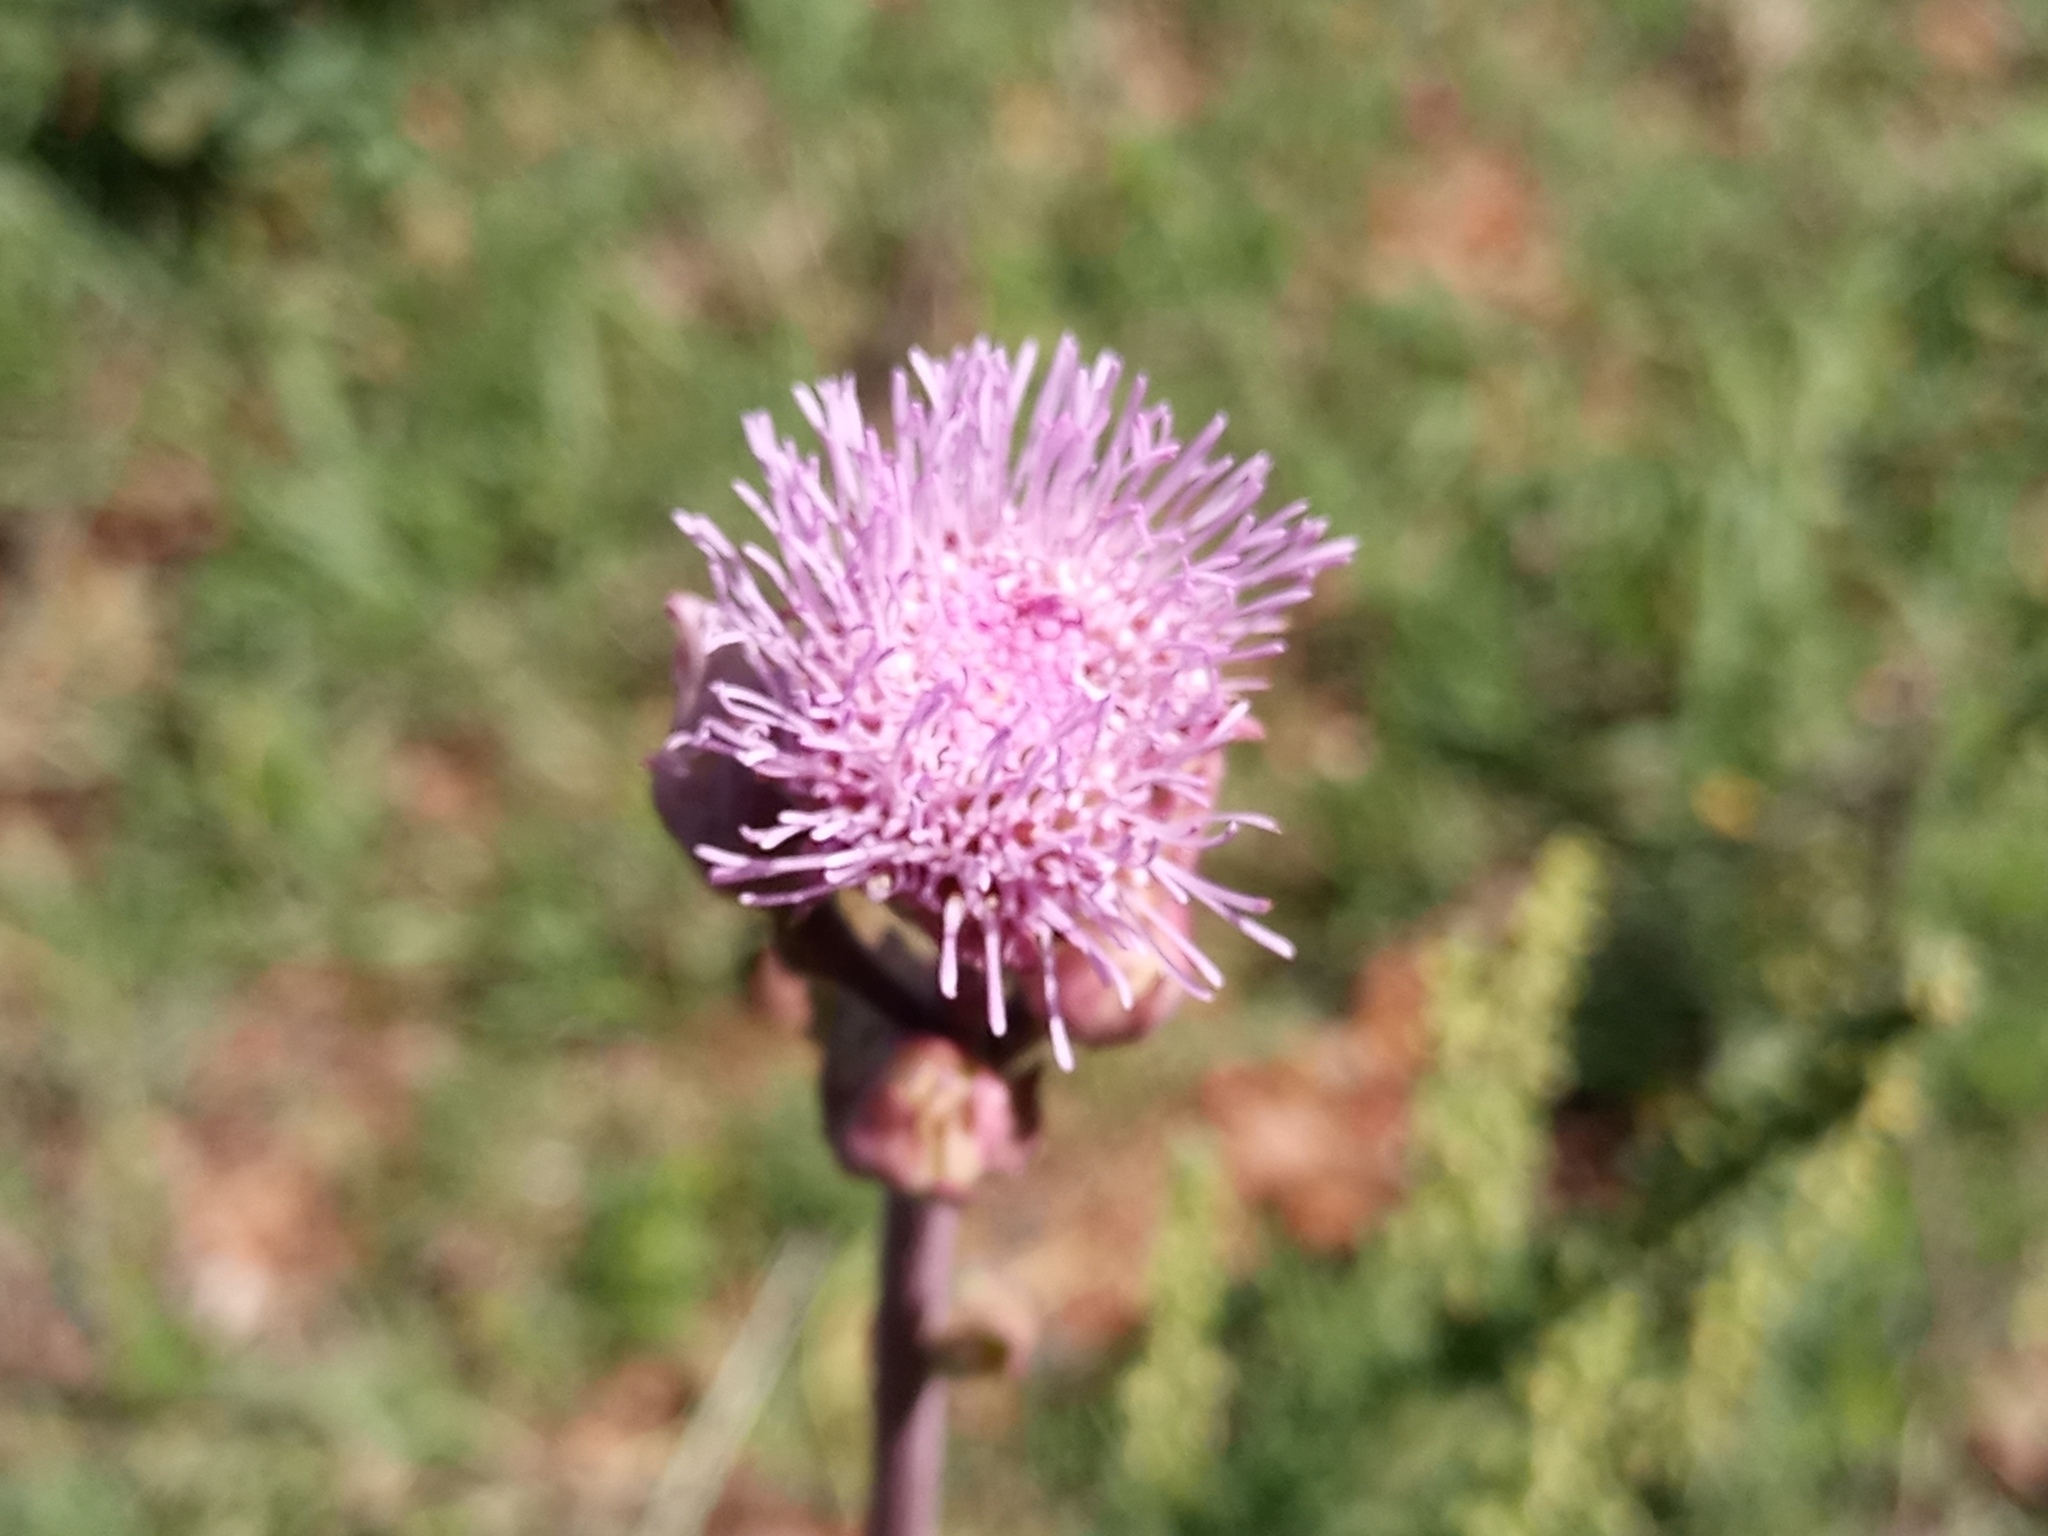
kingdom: Plantae
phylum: Tracheophyta
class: Magnoliopsida
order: Asterales
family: Asteraceae
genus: Campuloclinium
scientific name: Campuloclinium macrocephalum
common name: Pompomweed
